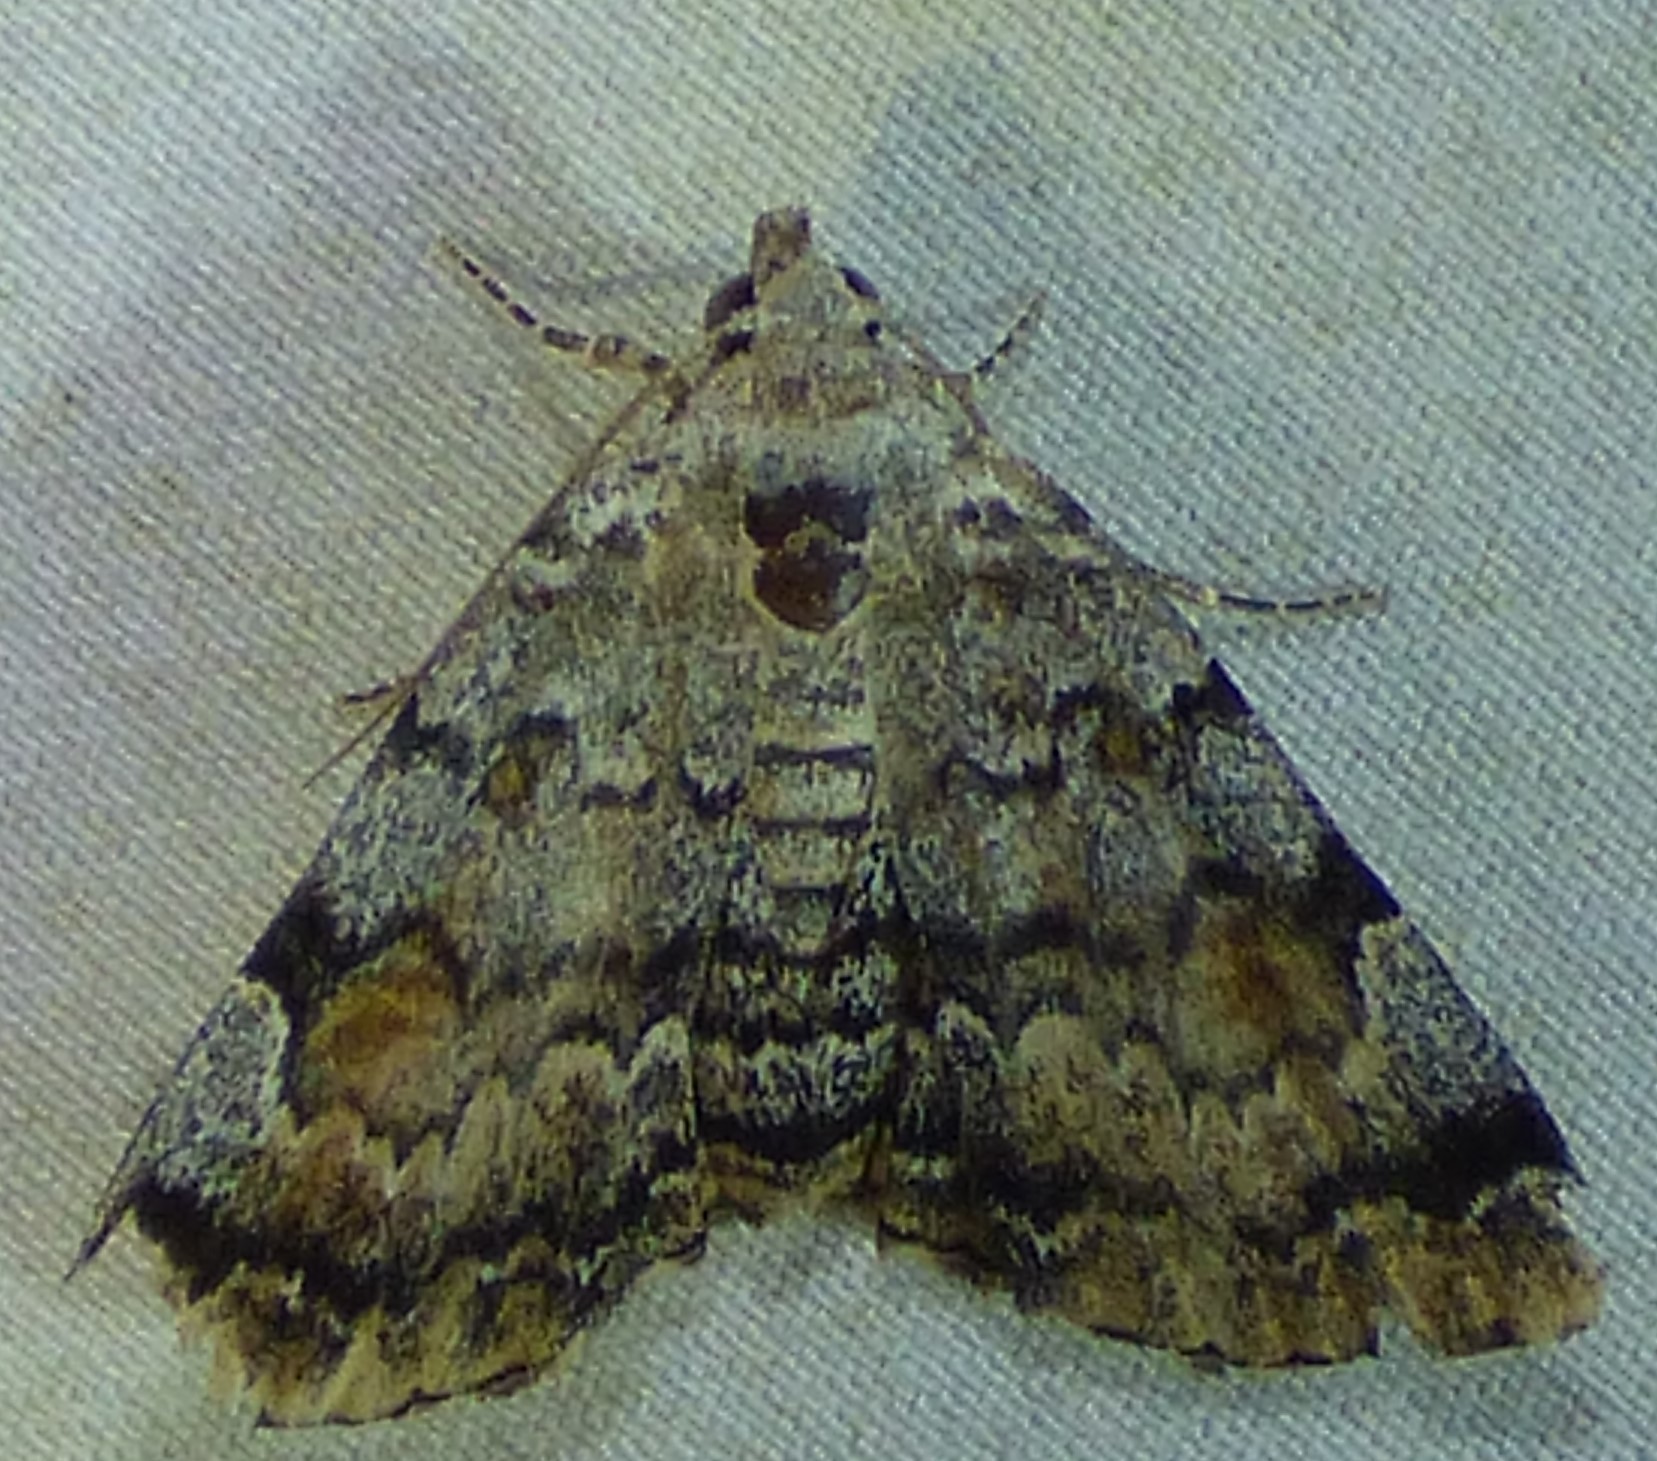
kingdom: Animalia
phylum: Arthropoda
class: Insecta
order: Lepidoptera
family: Erebidae
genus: Idia
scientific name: Idia americalis
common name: American idia moth
